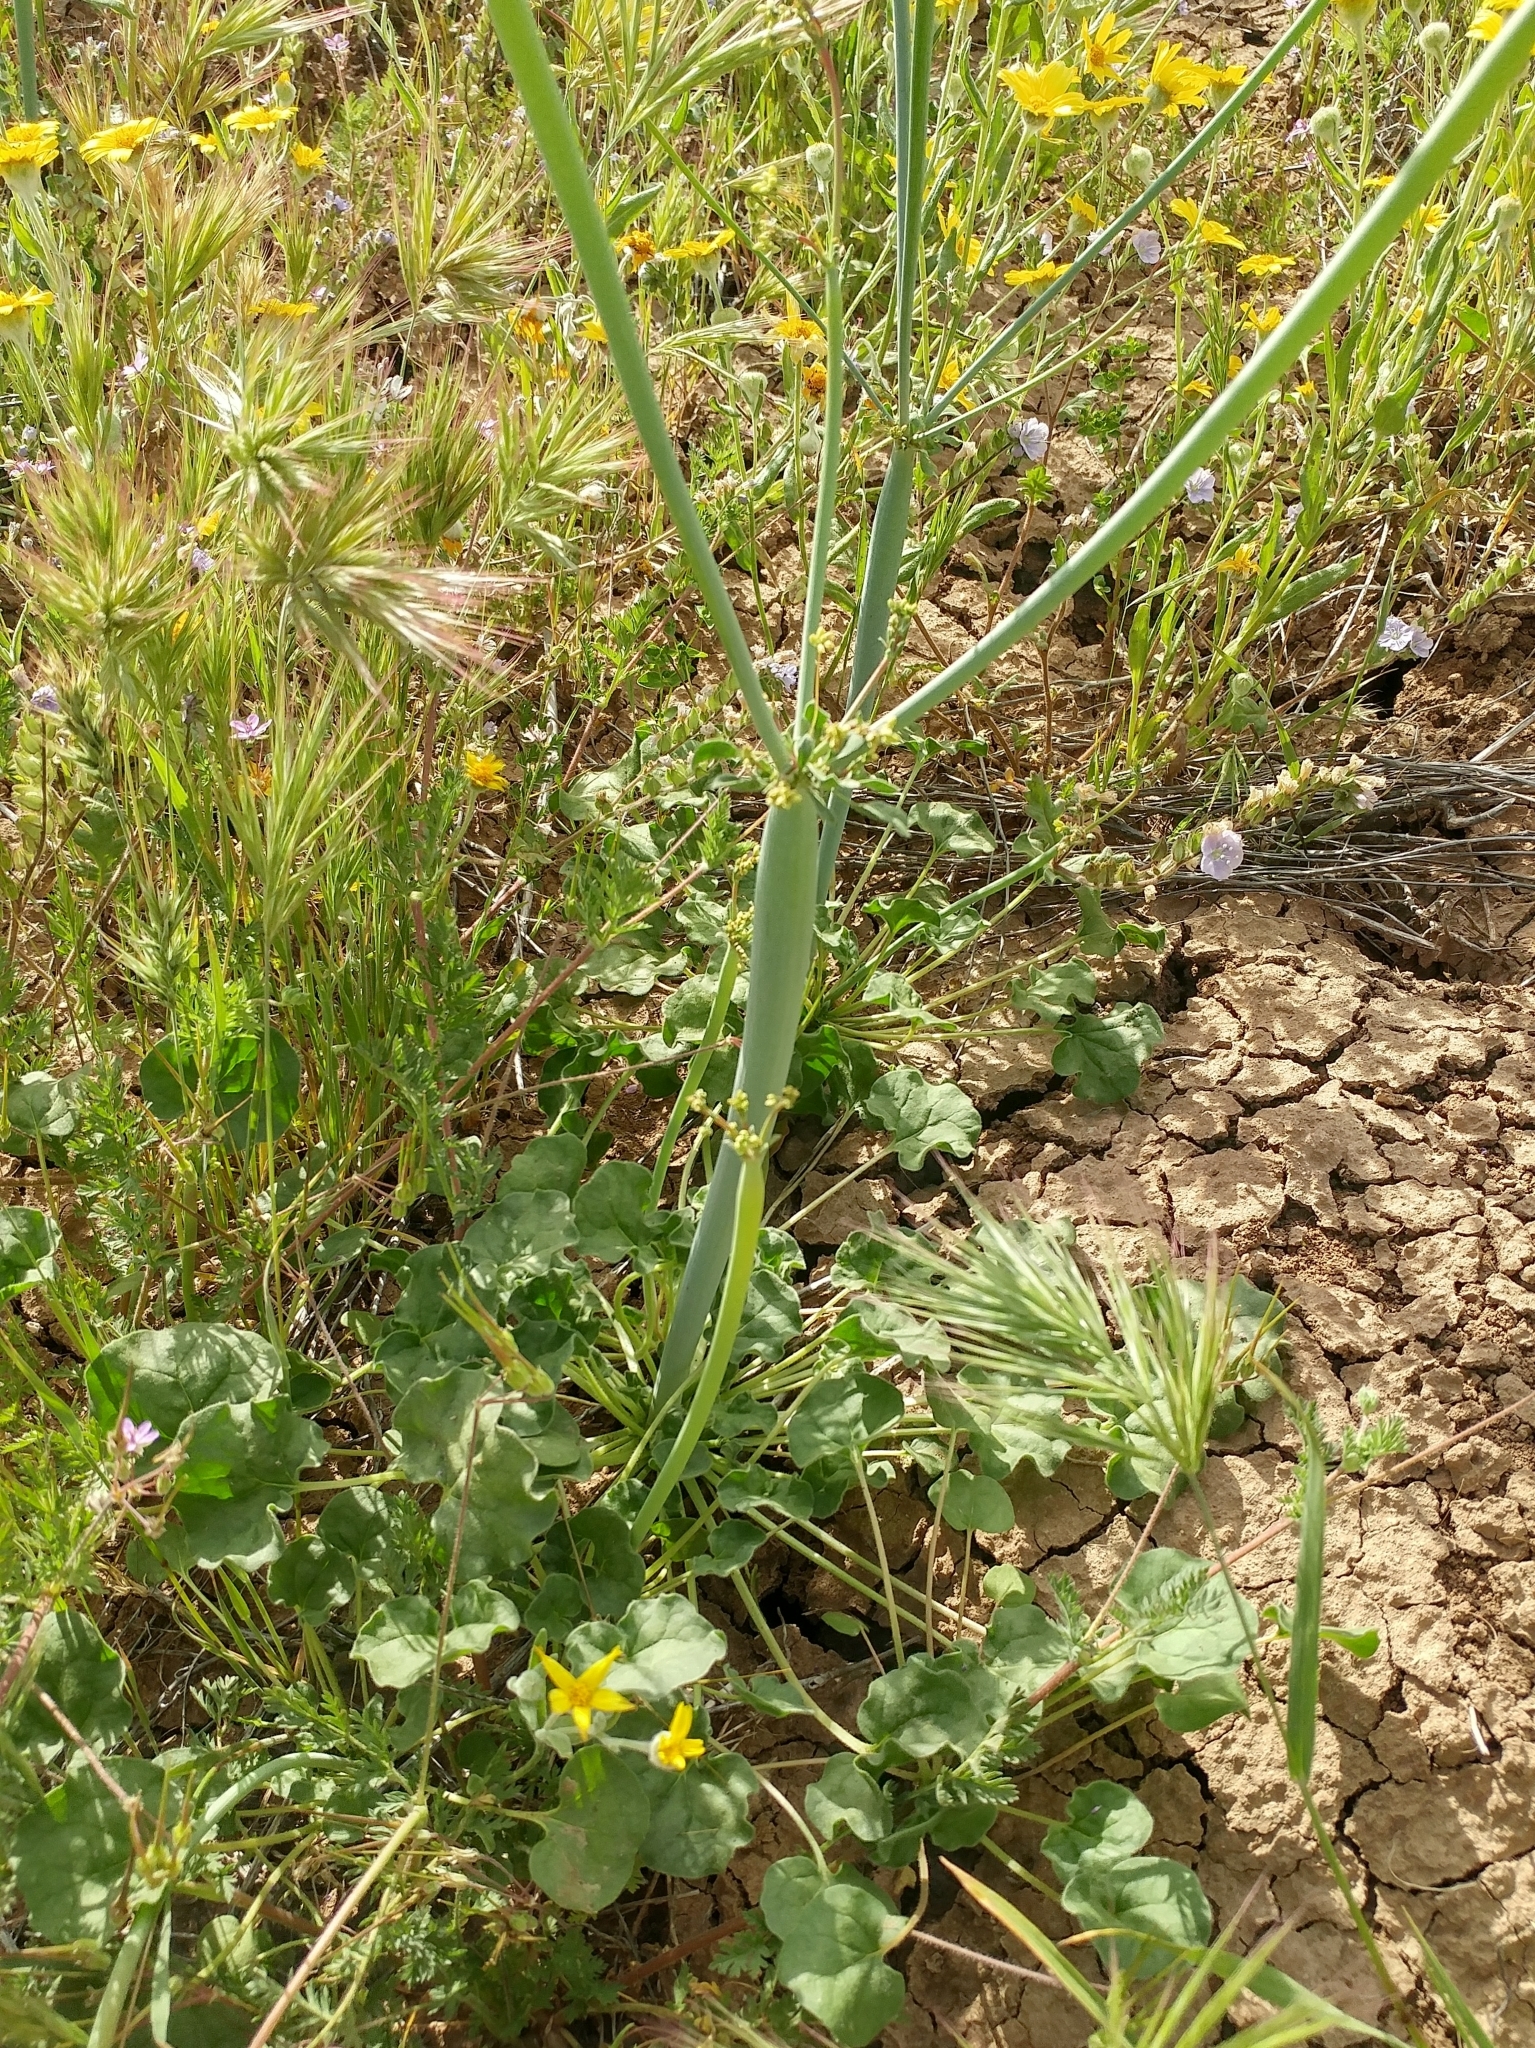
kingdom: Plantae
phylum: Tracheophyta
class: Magnoliopsida
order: Caryophyllales
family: Polygonaceae
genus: Eriogonum
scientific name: Eriogonum clavatum
